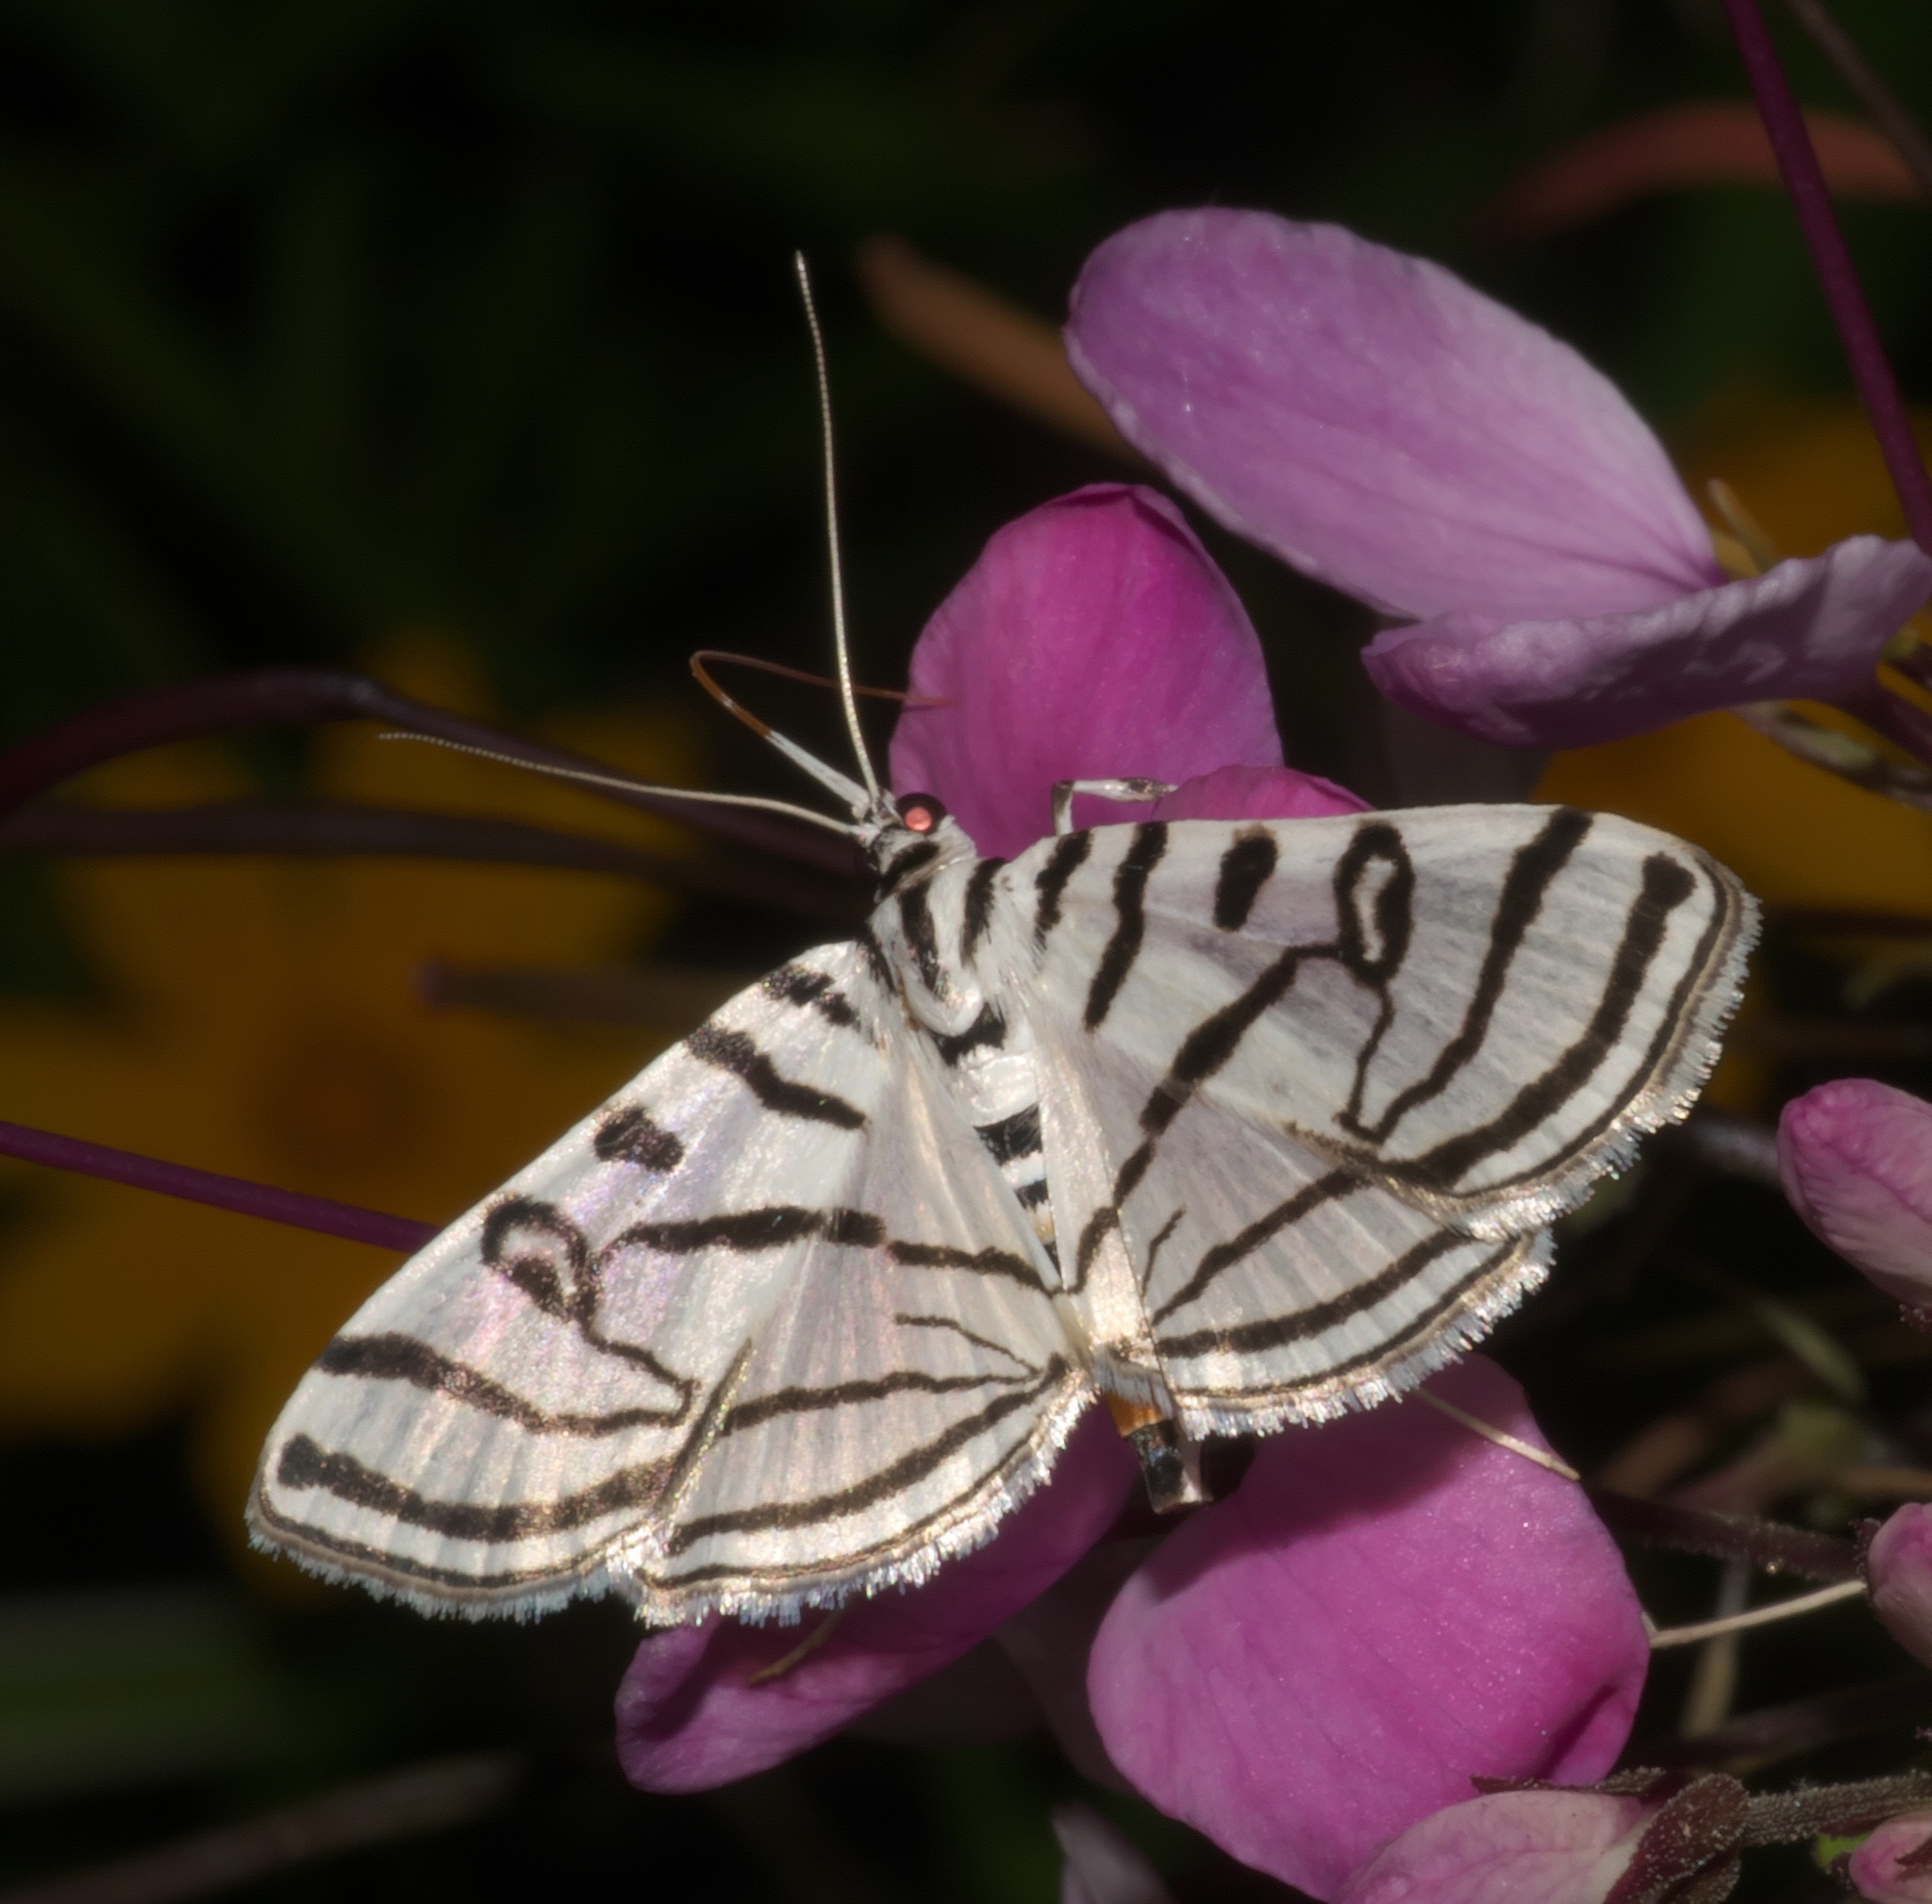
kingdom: Animalia
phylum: Arthropoda
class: Insecta
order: Lepidoptera
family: Crambidae
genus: Conchylodes
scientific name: Conchylodes ovulalis
